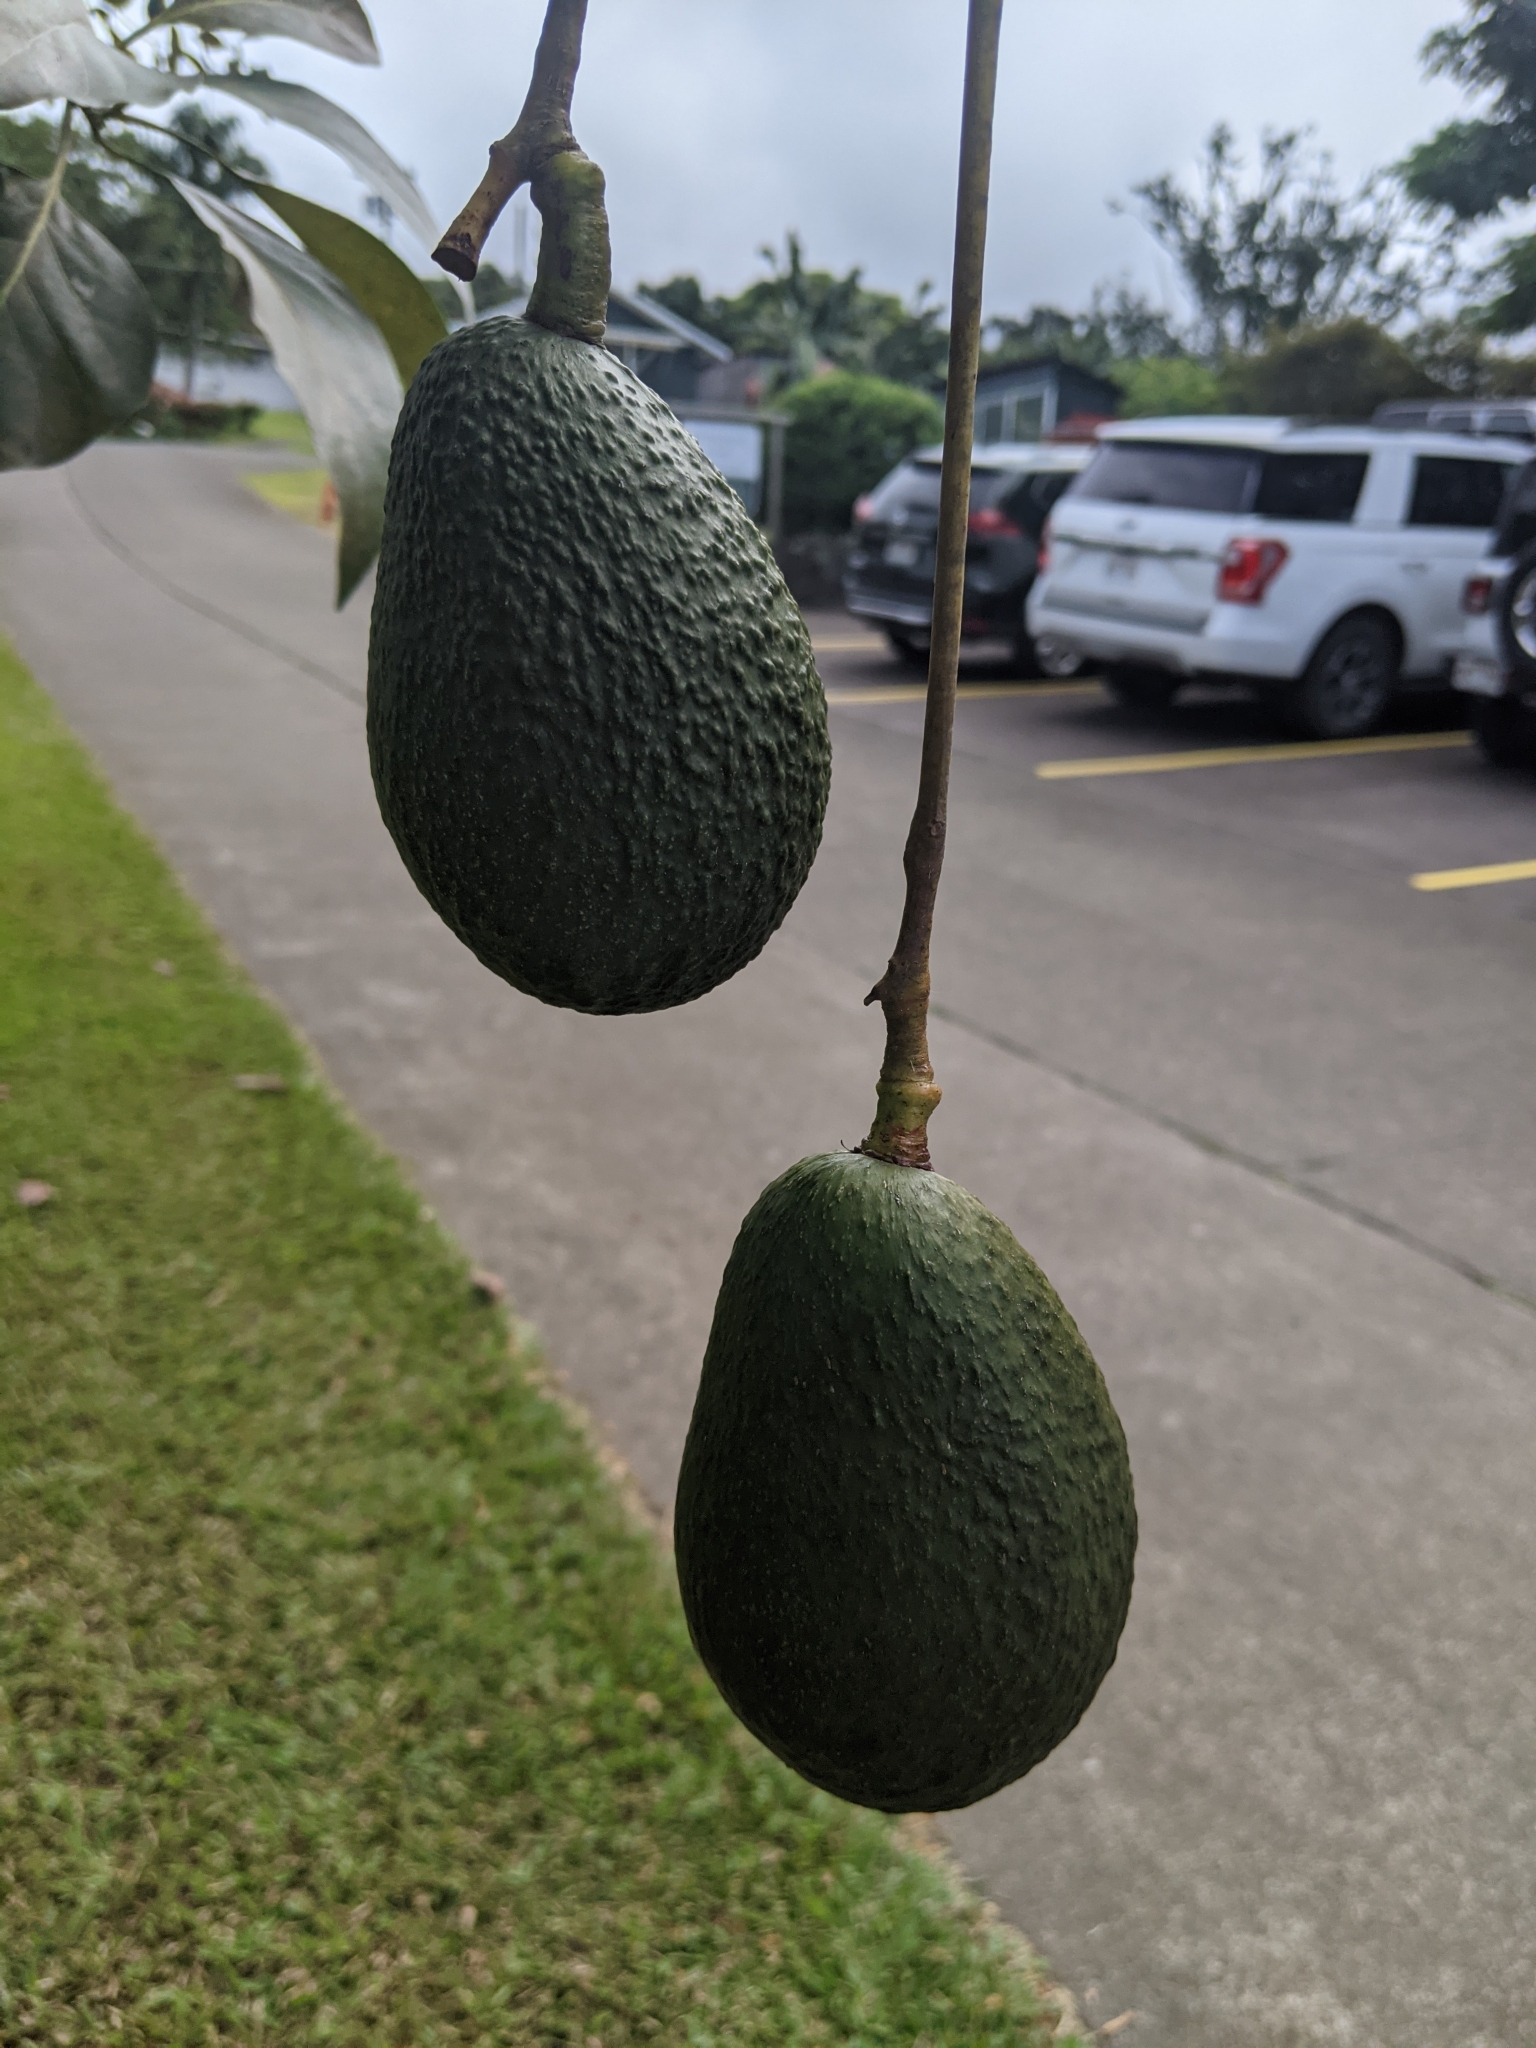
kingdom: Plantae
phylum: Tracheophyta
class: Magnoliopsida
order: Laurales
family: Lauraceae
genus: Persea
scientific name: Persea americana
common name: Avocado
